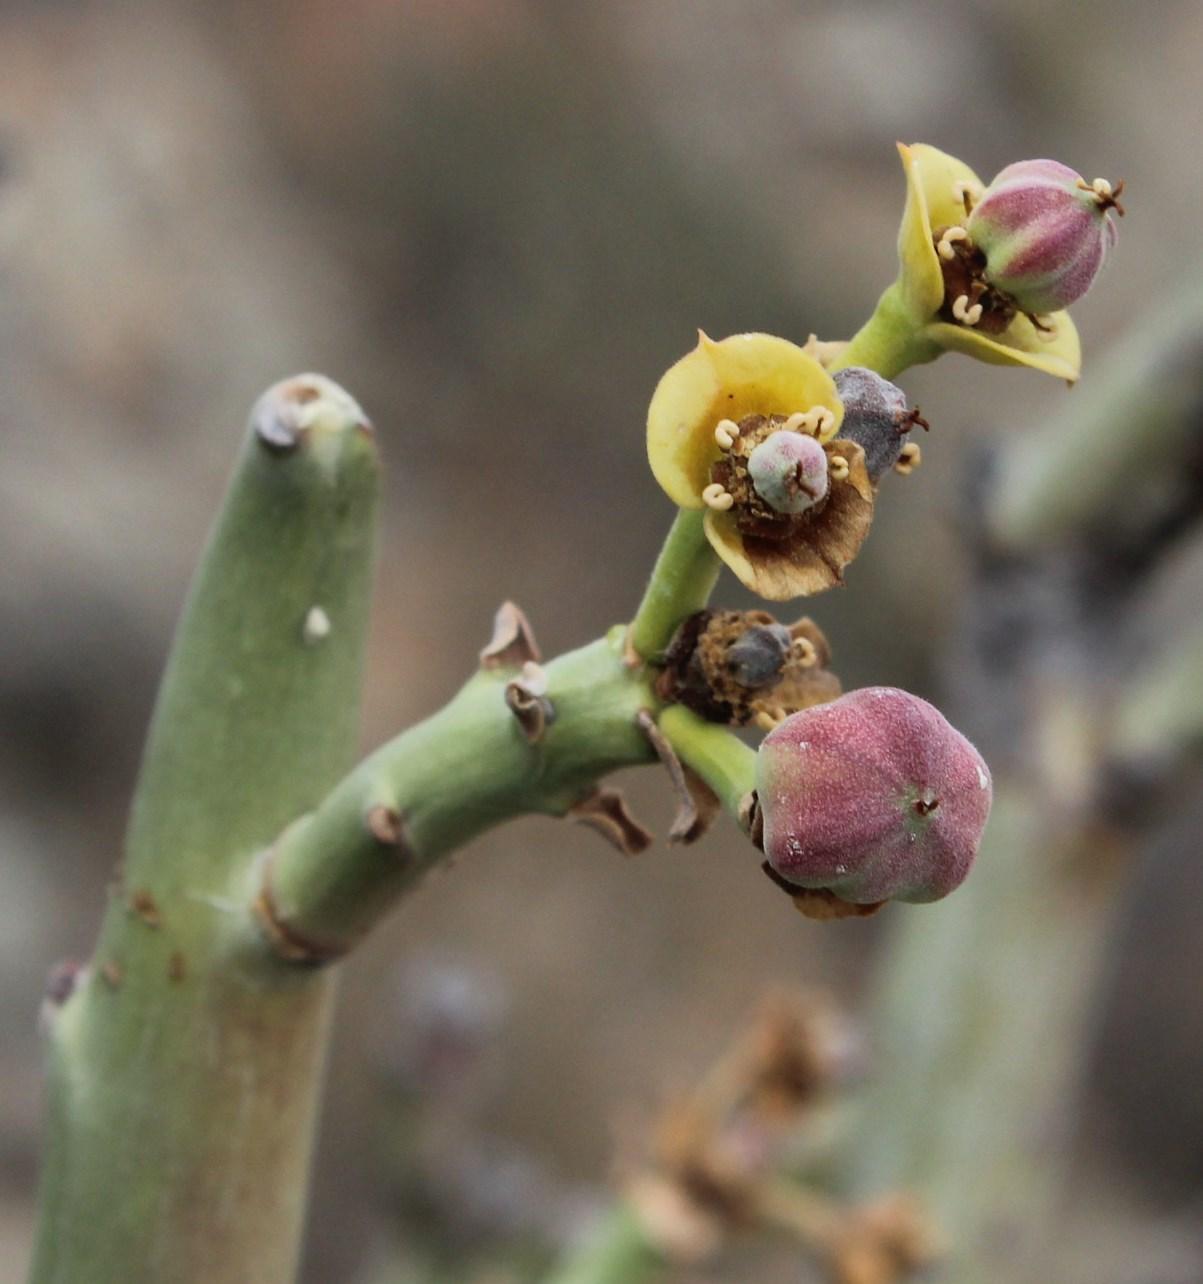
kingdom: Plantae
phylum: Tracheophyta
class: Magnoliopsida
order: Malpighiales
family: Euphorbiaceae
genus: Euphorbia
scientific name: Euphorbia dregeana
